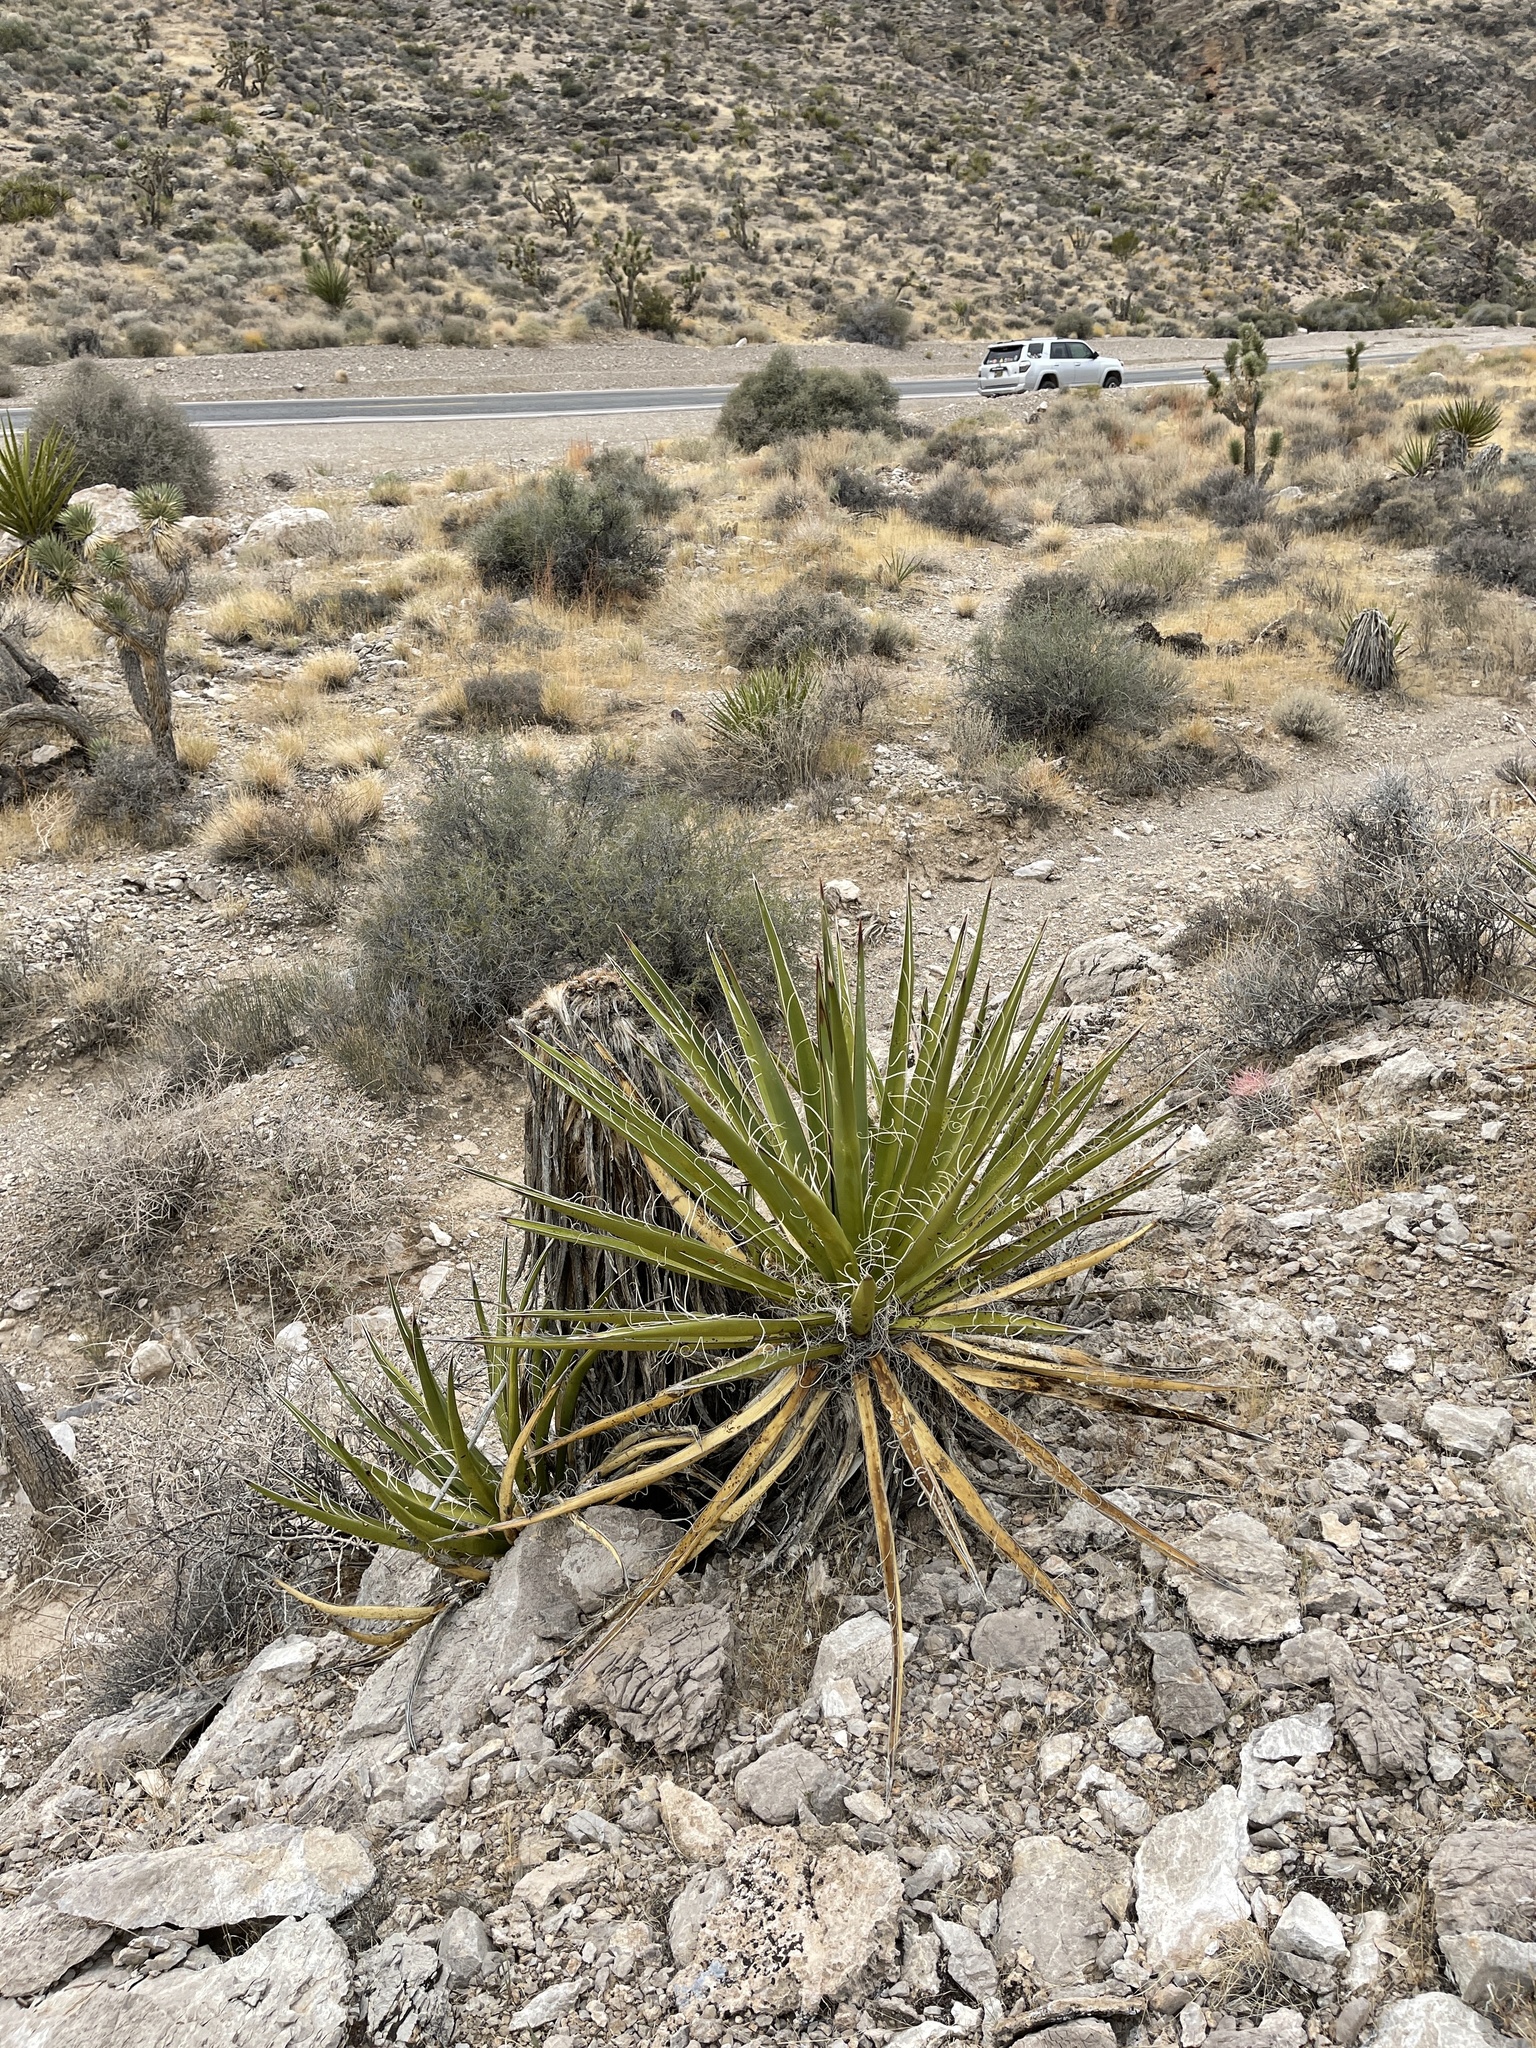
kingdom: Plantae
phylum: Tracheophyta
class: Liliopsida
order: Asparagales
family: Asparagaceae
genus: Yucca
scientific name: Yucca schidigera
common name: Mojave yucca
